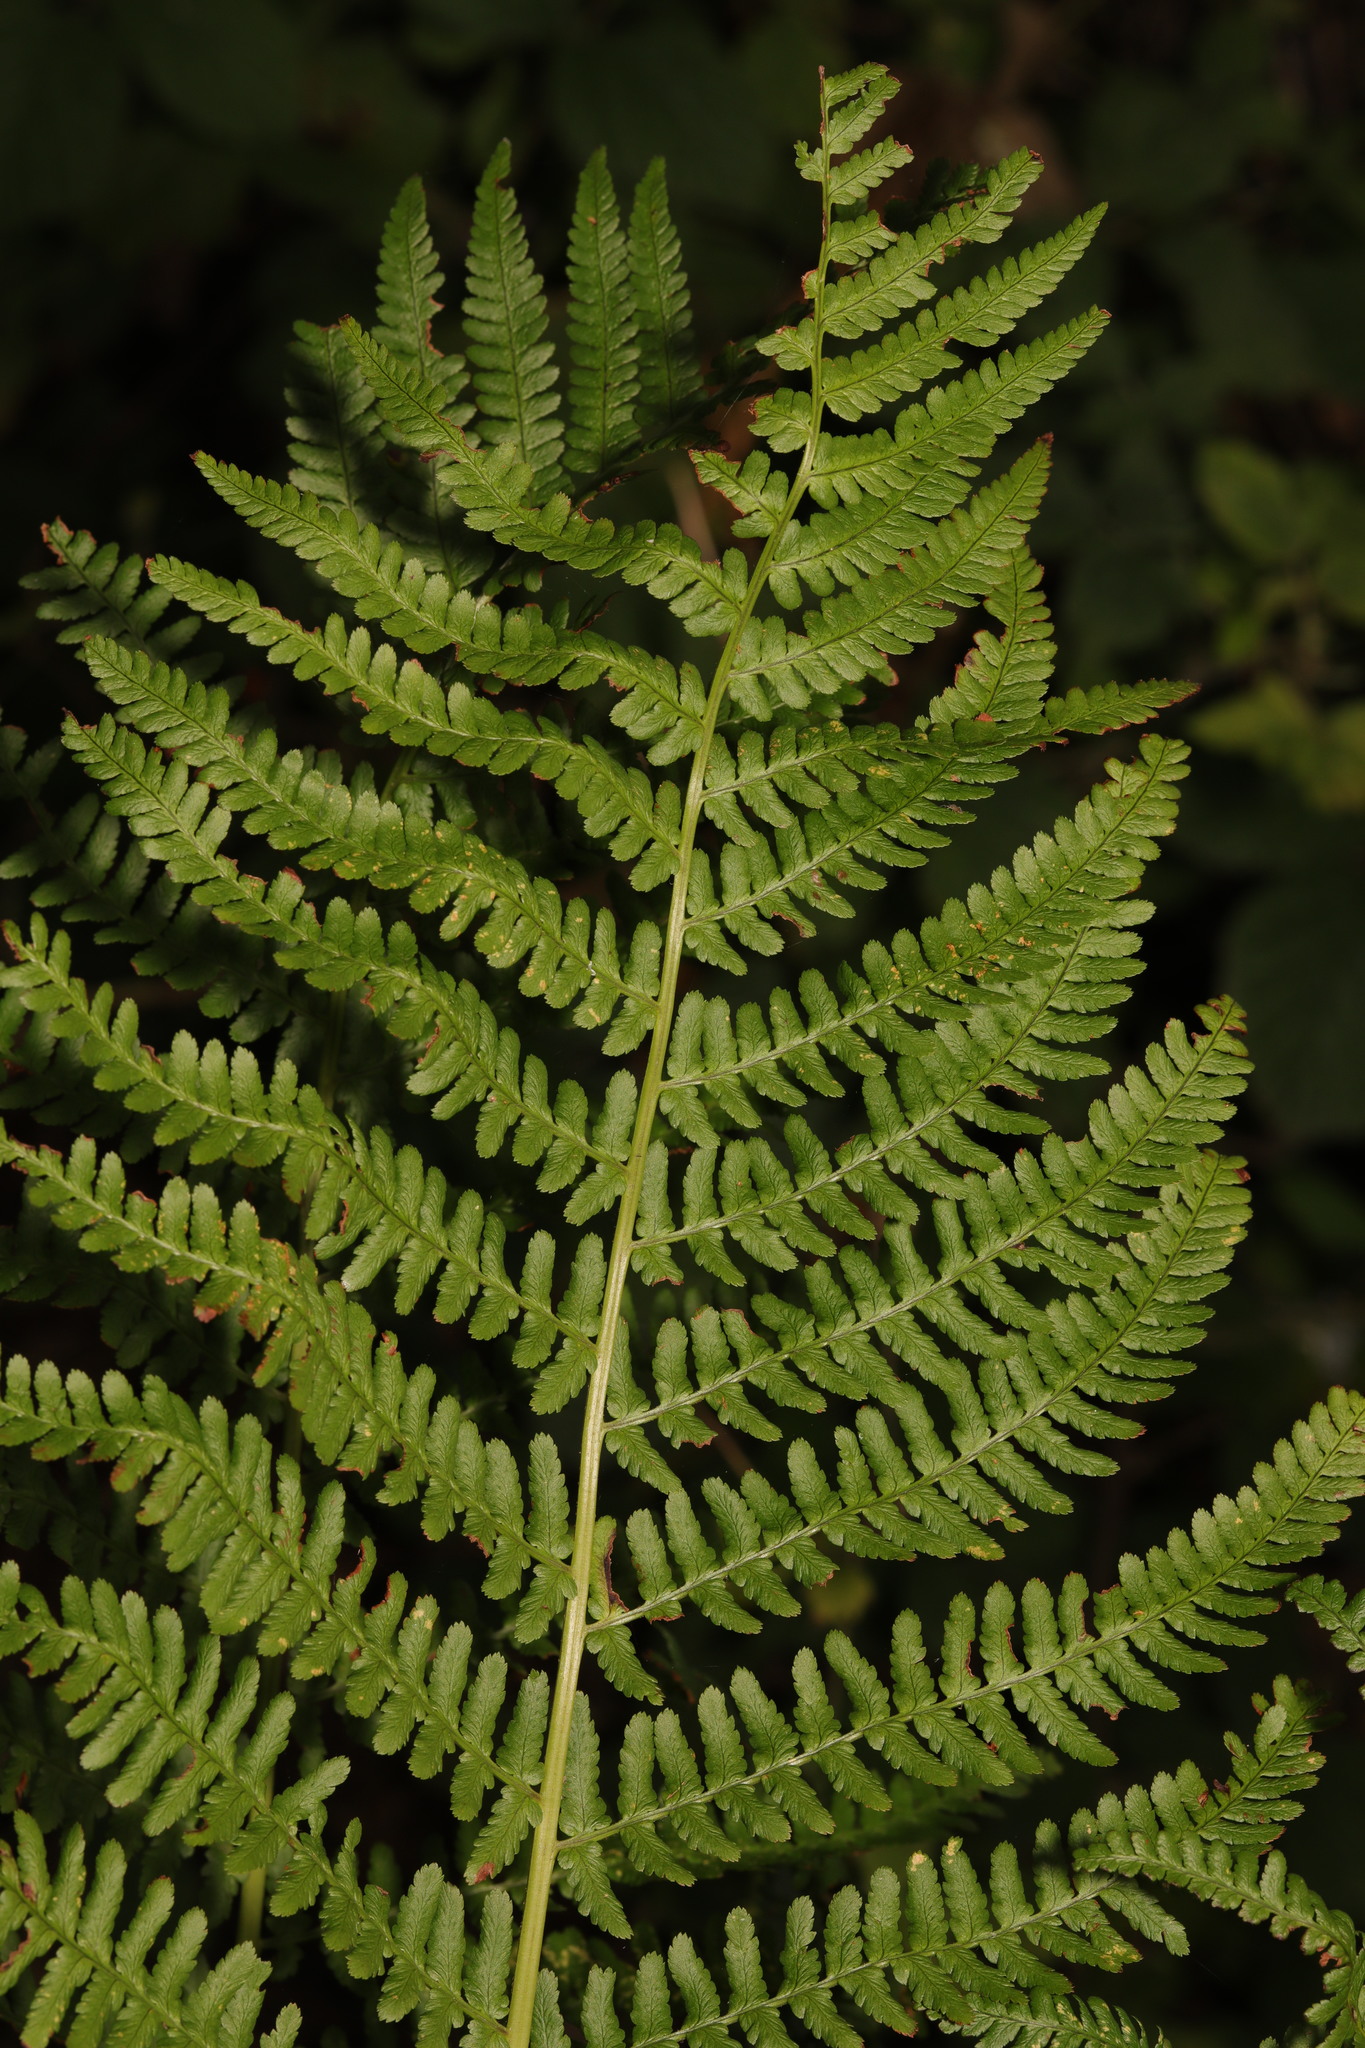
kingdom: Plantae
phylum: Tracheophyta
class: Polypodiopsida
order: Polypodiales
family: Dryopteridaceae
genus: Dryopteris
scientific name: Dryopteris filix-mas
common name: Male fern
